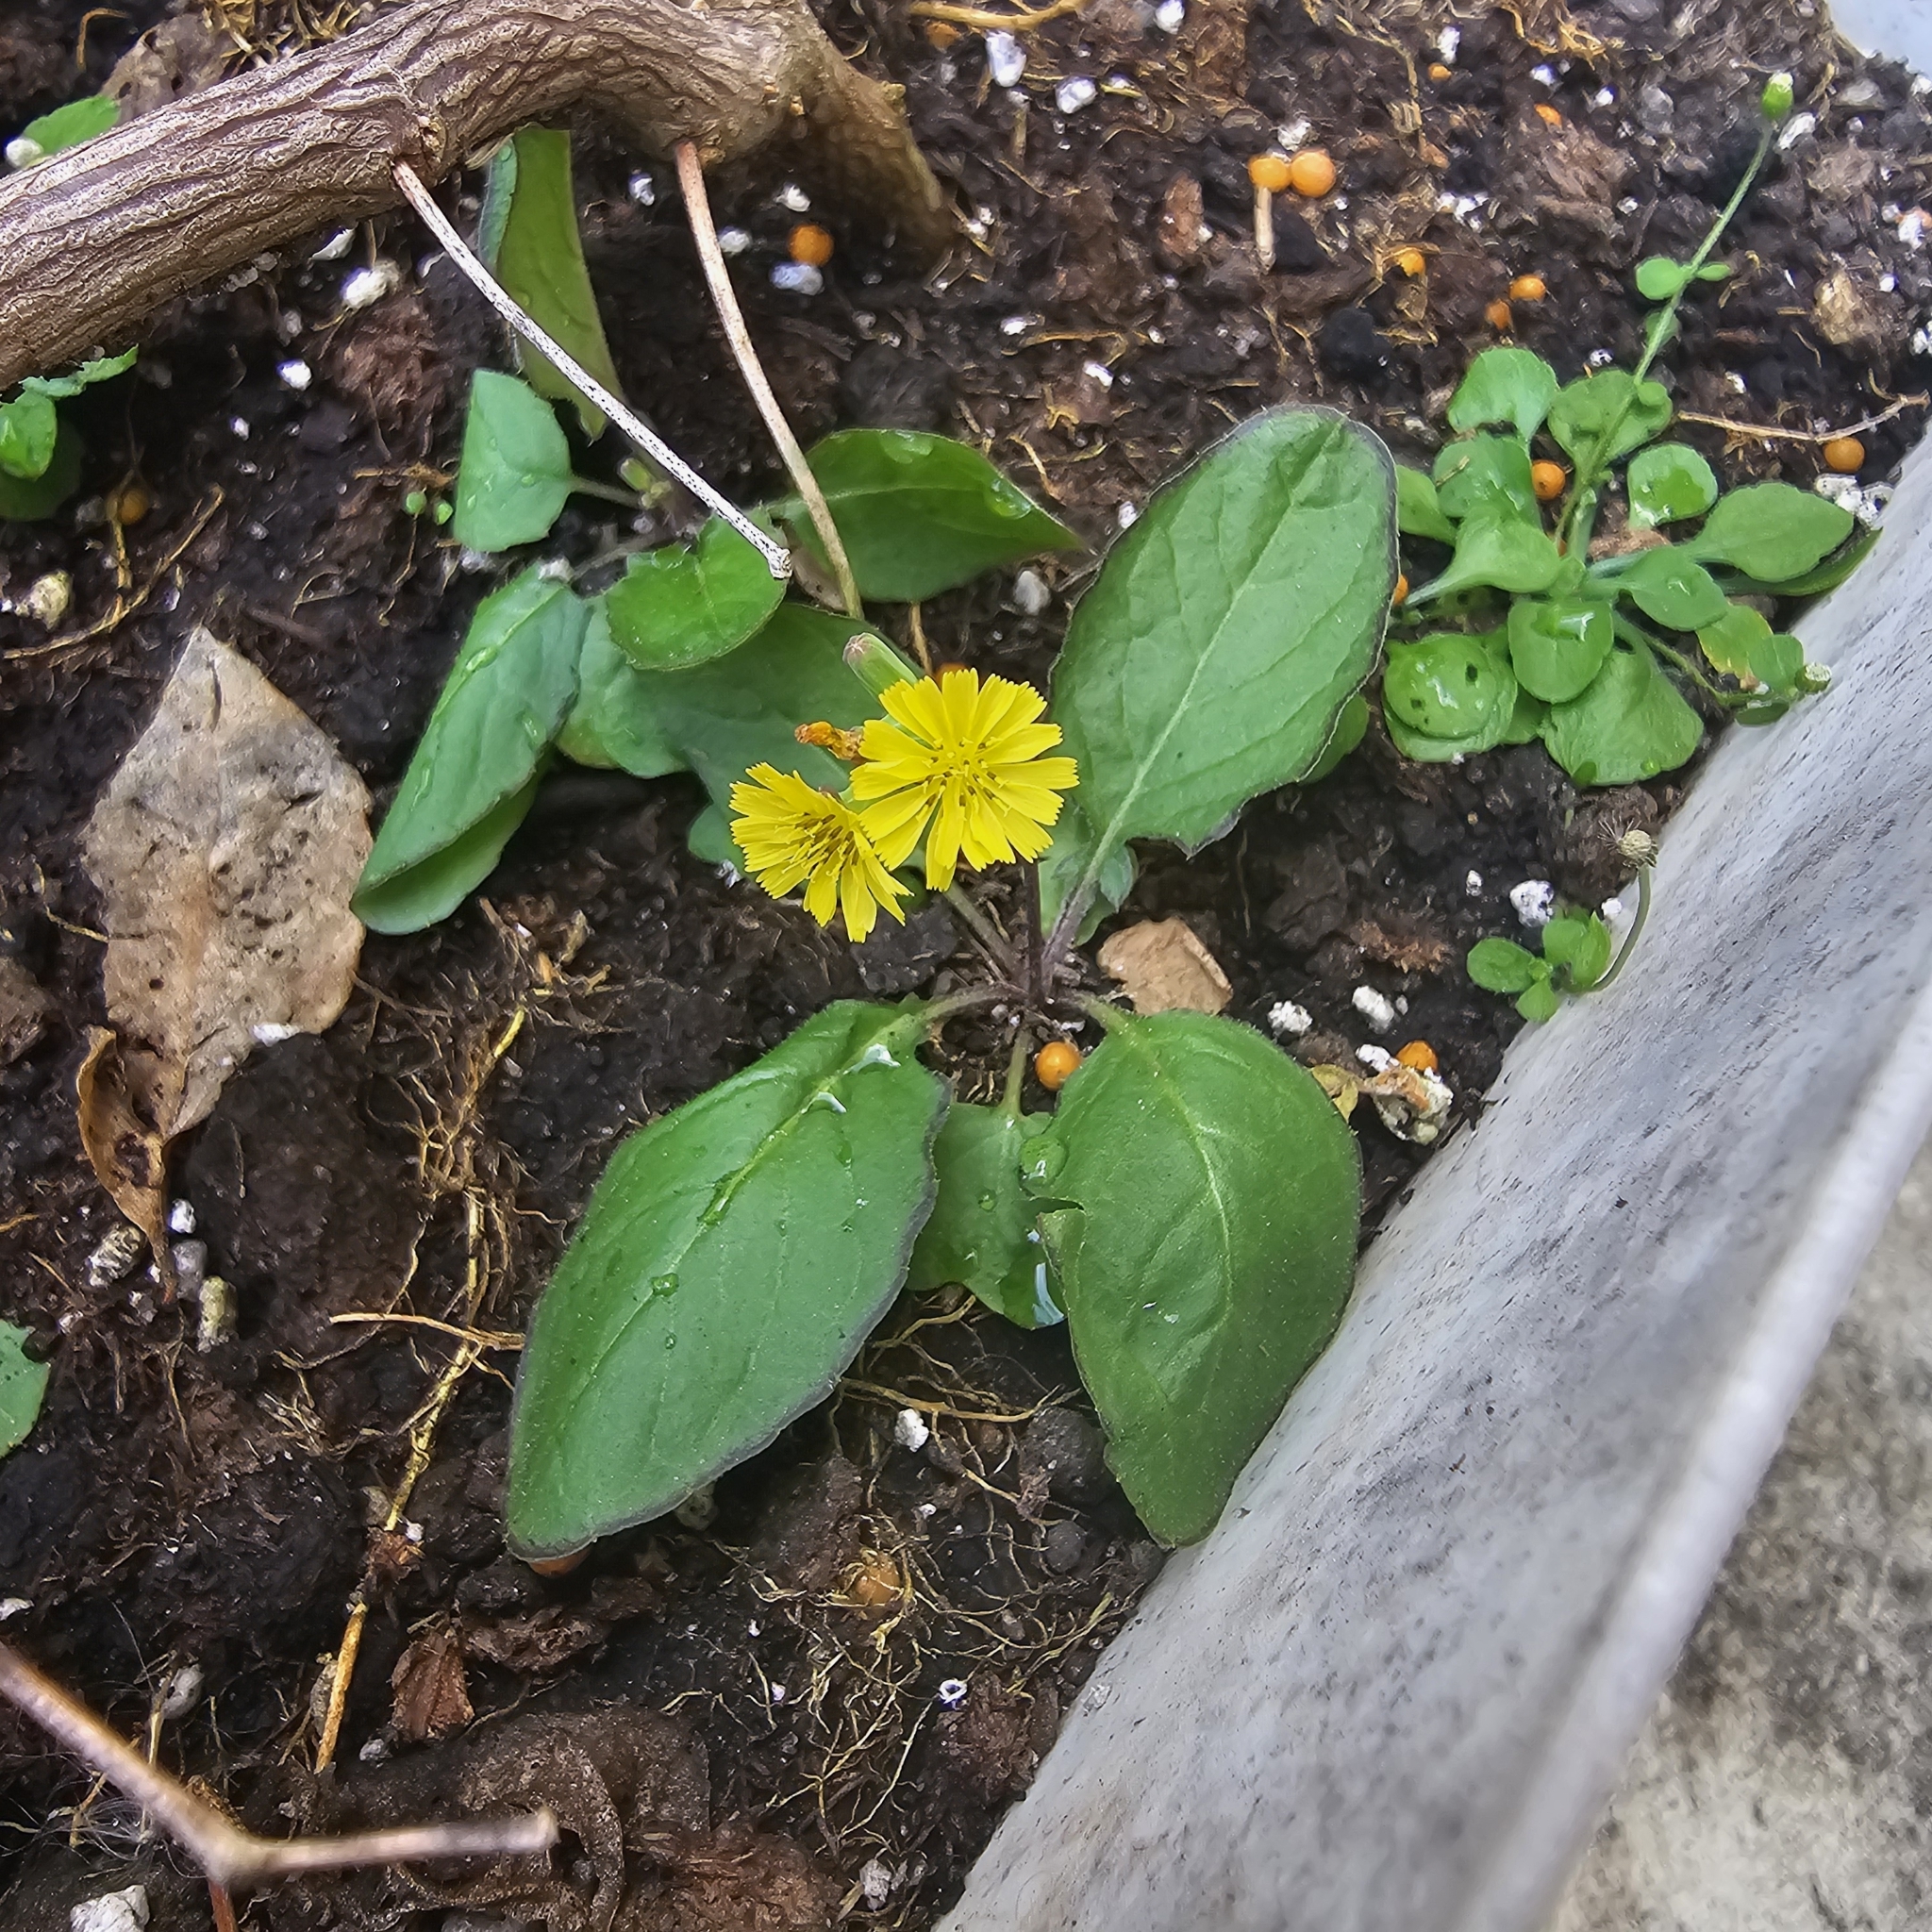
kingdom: Plantae
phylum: Tracheophyta
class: Magnoliopsida
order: Asterales
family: Asteraceae
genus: Youngia
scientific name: Youngia japonica
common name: Oriental false hawksbeard
